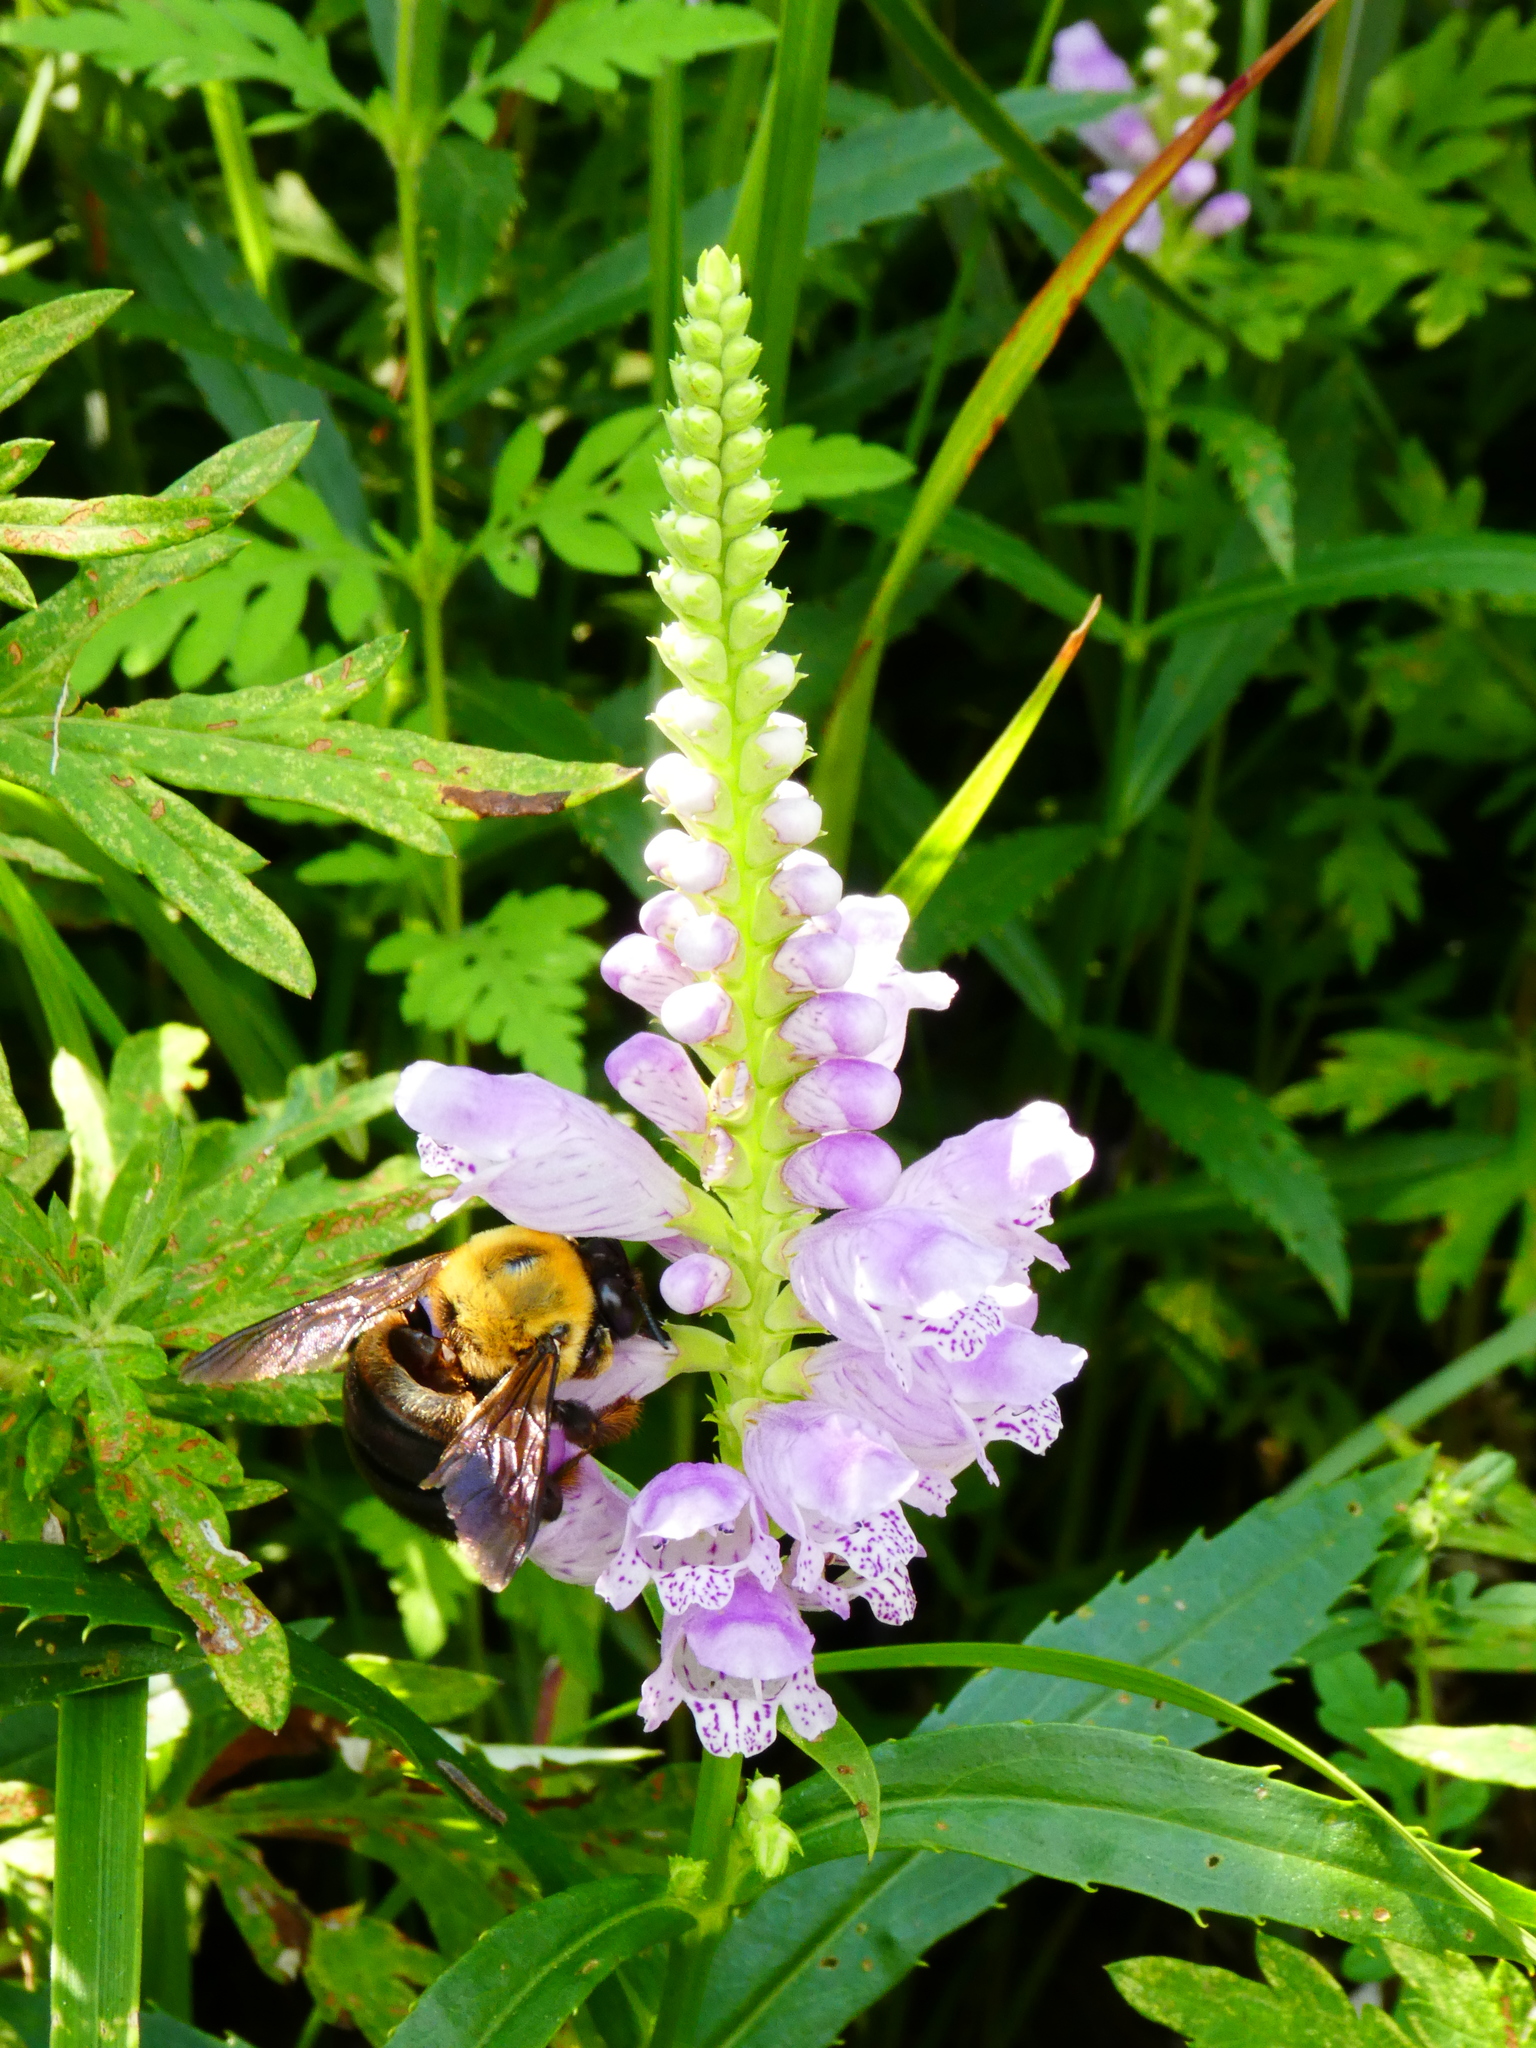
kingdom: Animalia
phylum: Arthropoda
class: Insecta
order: Hymenoptera
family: Apidae
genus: Xylocopa
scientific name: Xylocopa appendiculata
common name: Japanese carpenter bee
